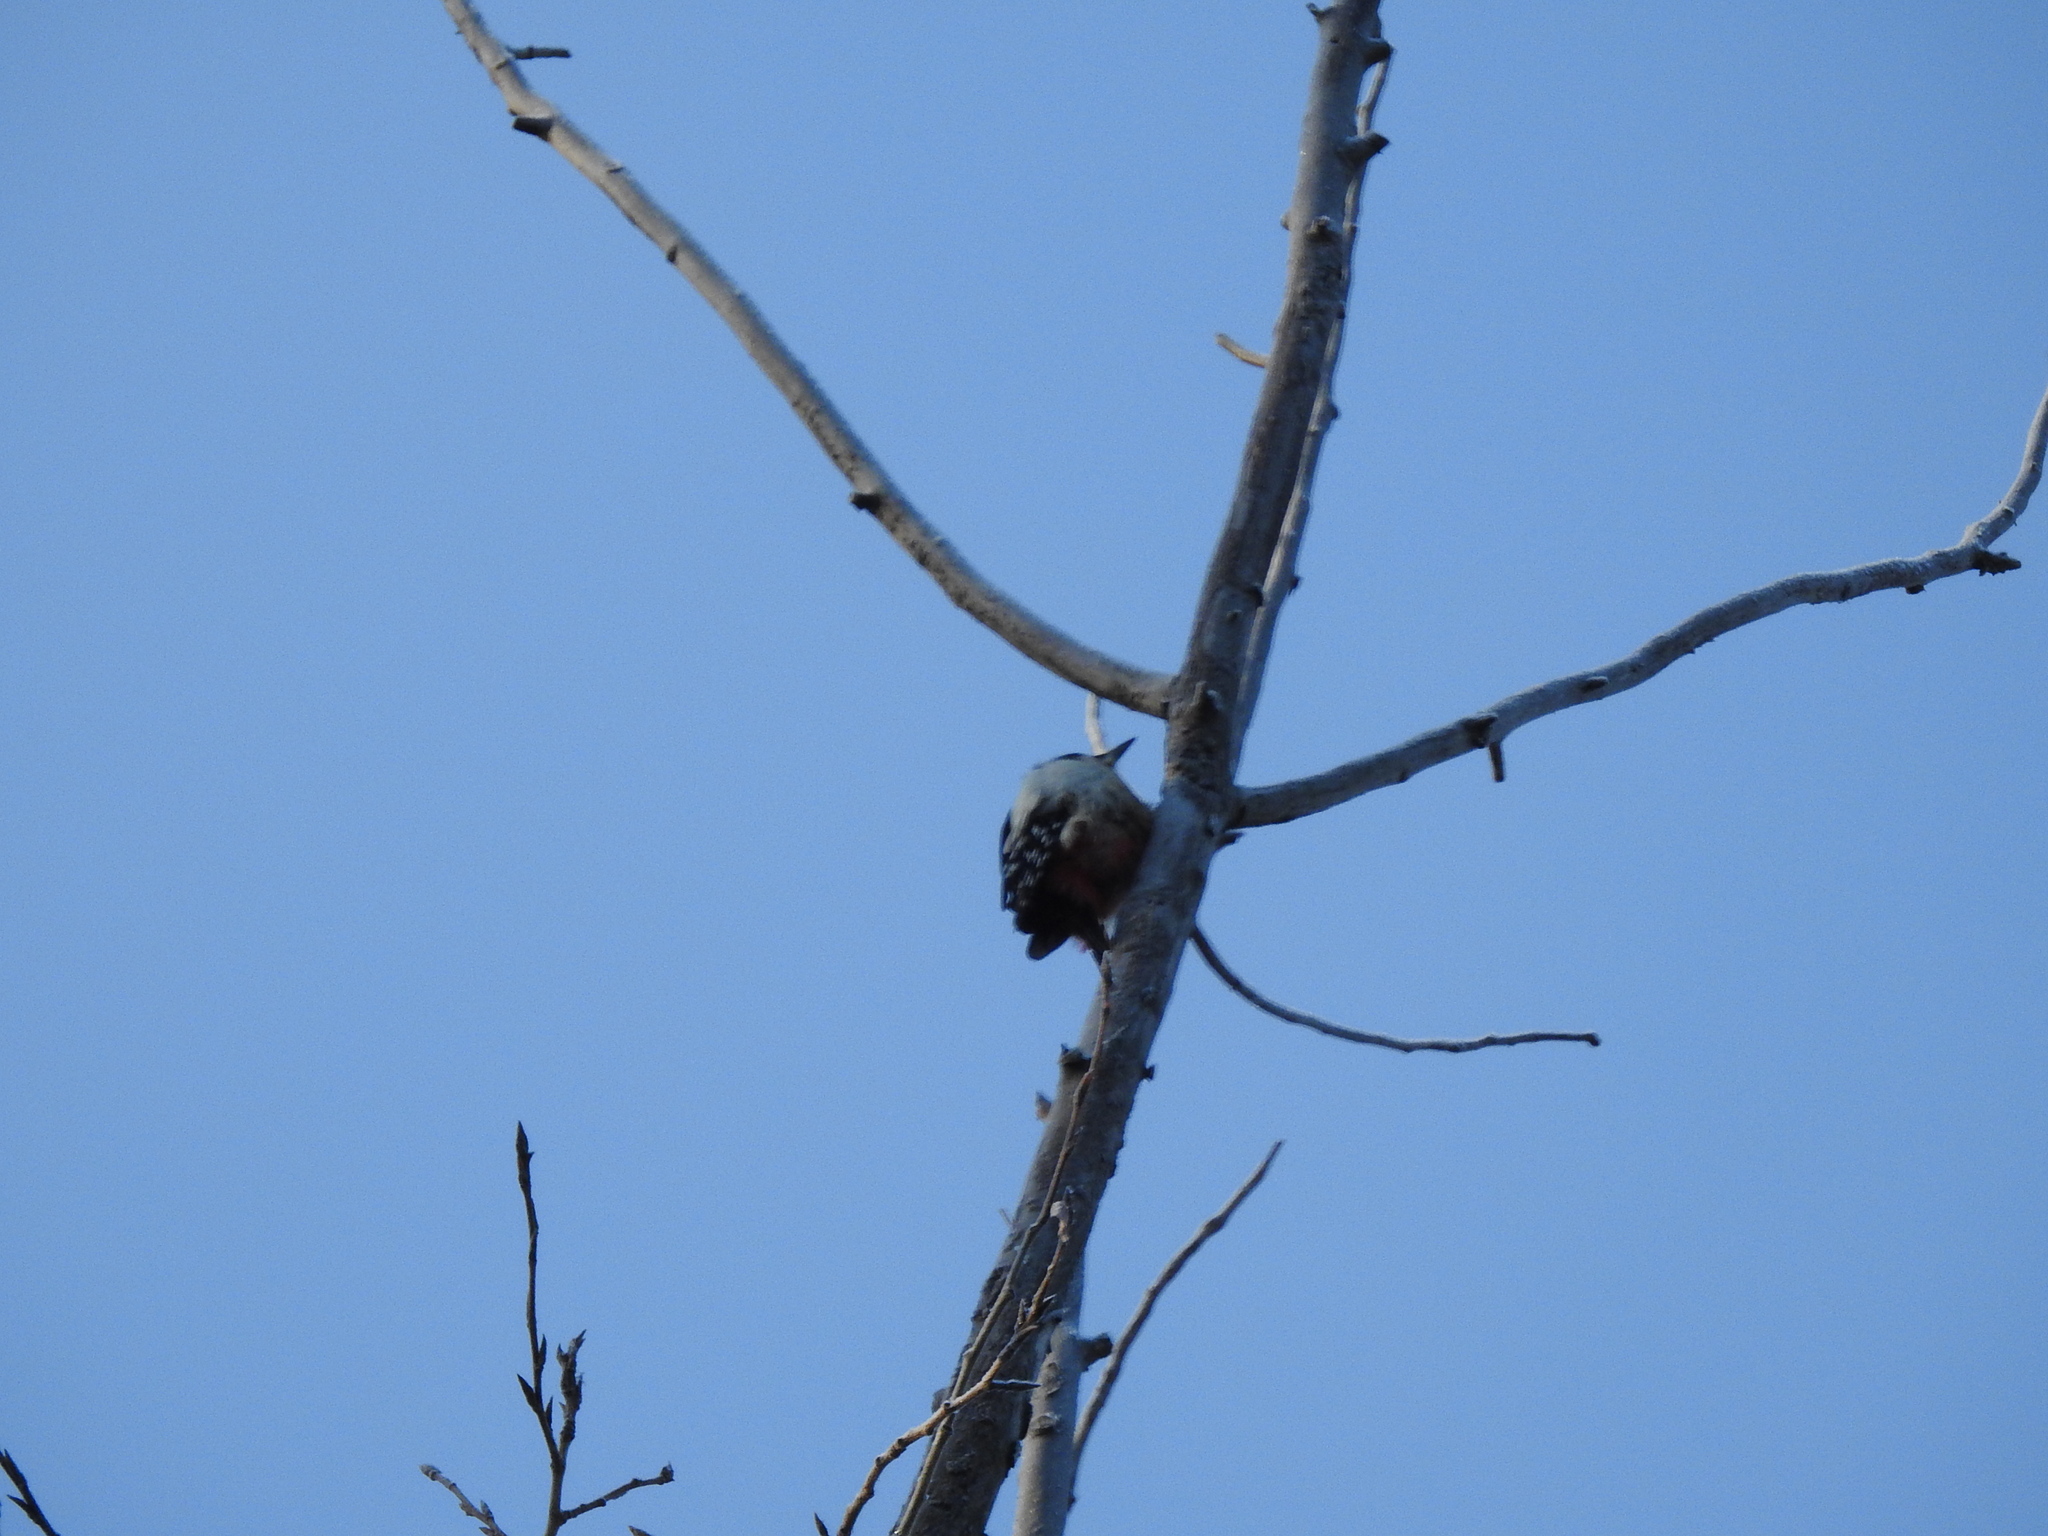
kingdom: Animalia
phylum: Chordata
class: Aves
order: Piciformes
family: Picidae
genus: Dendrocopos
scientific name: Dendrocopos major
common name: Great spotted woodpecker
